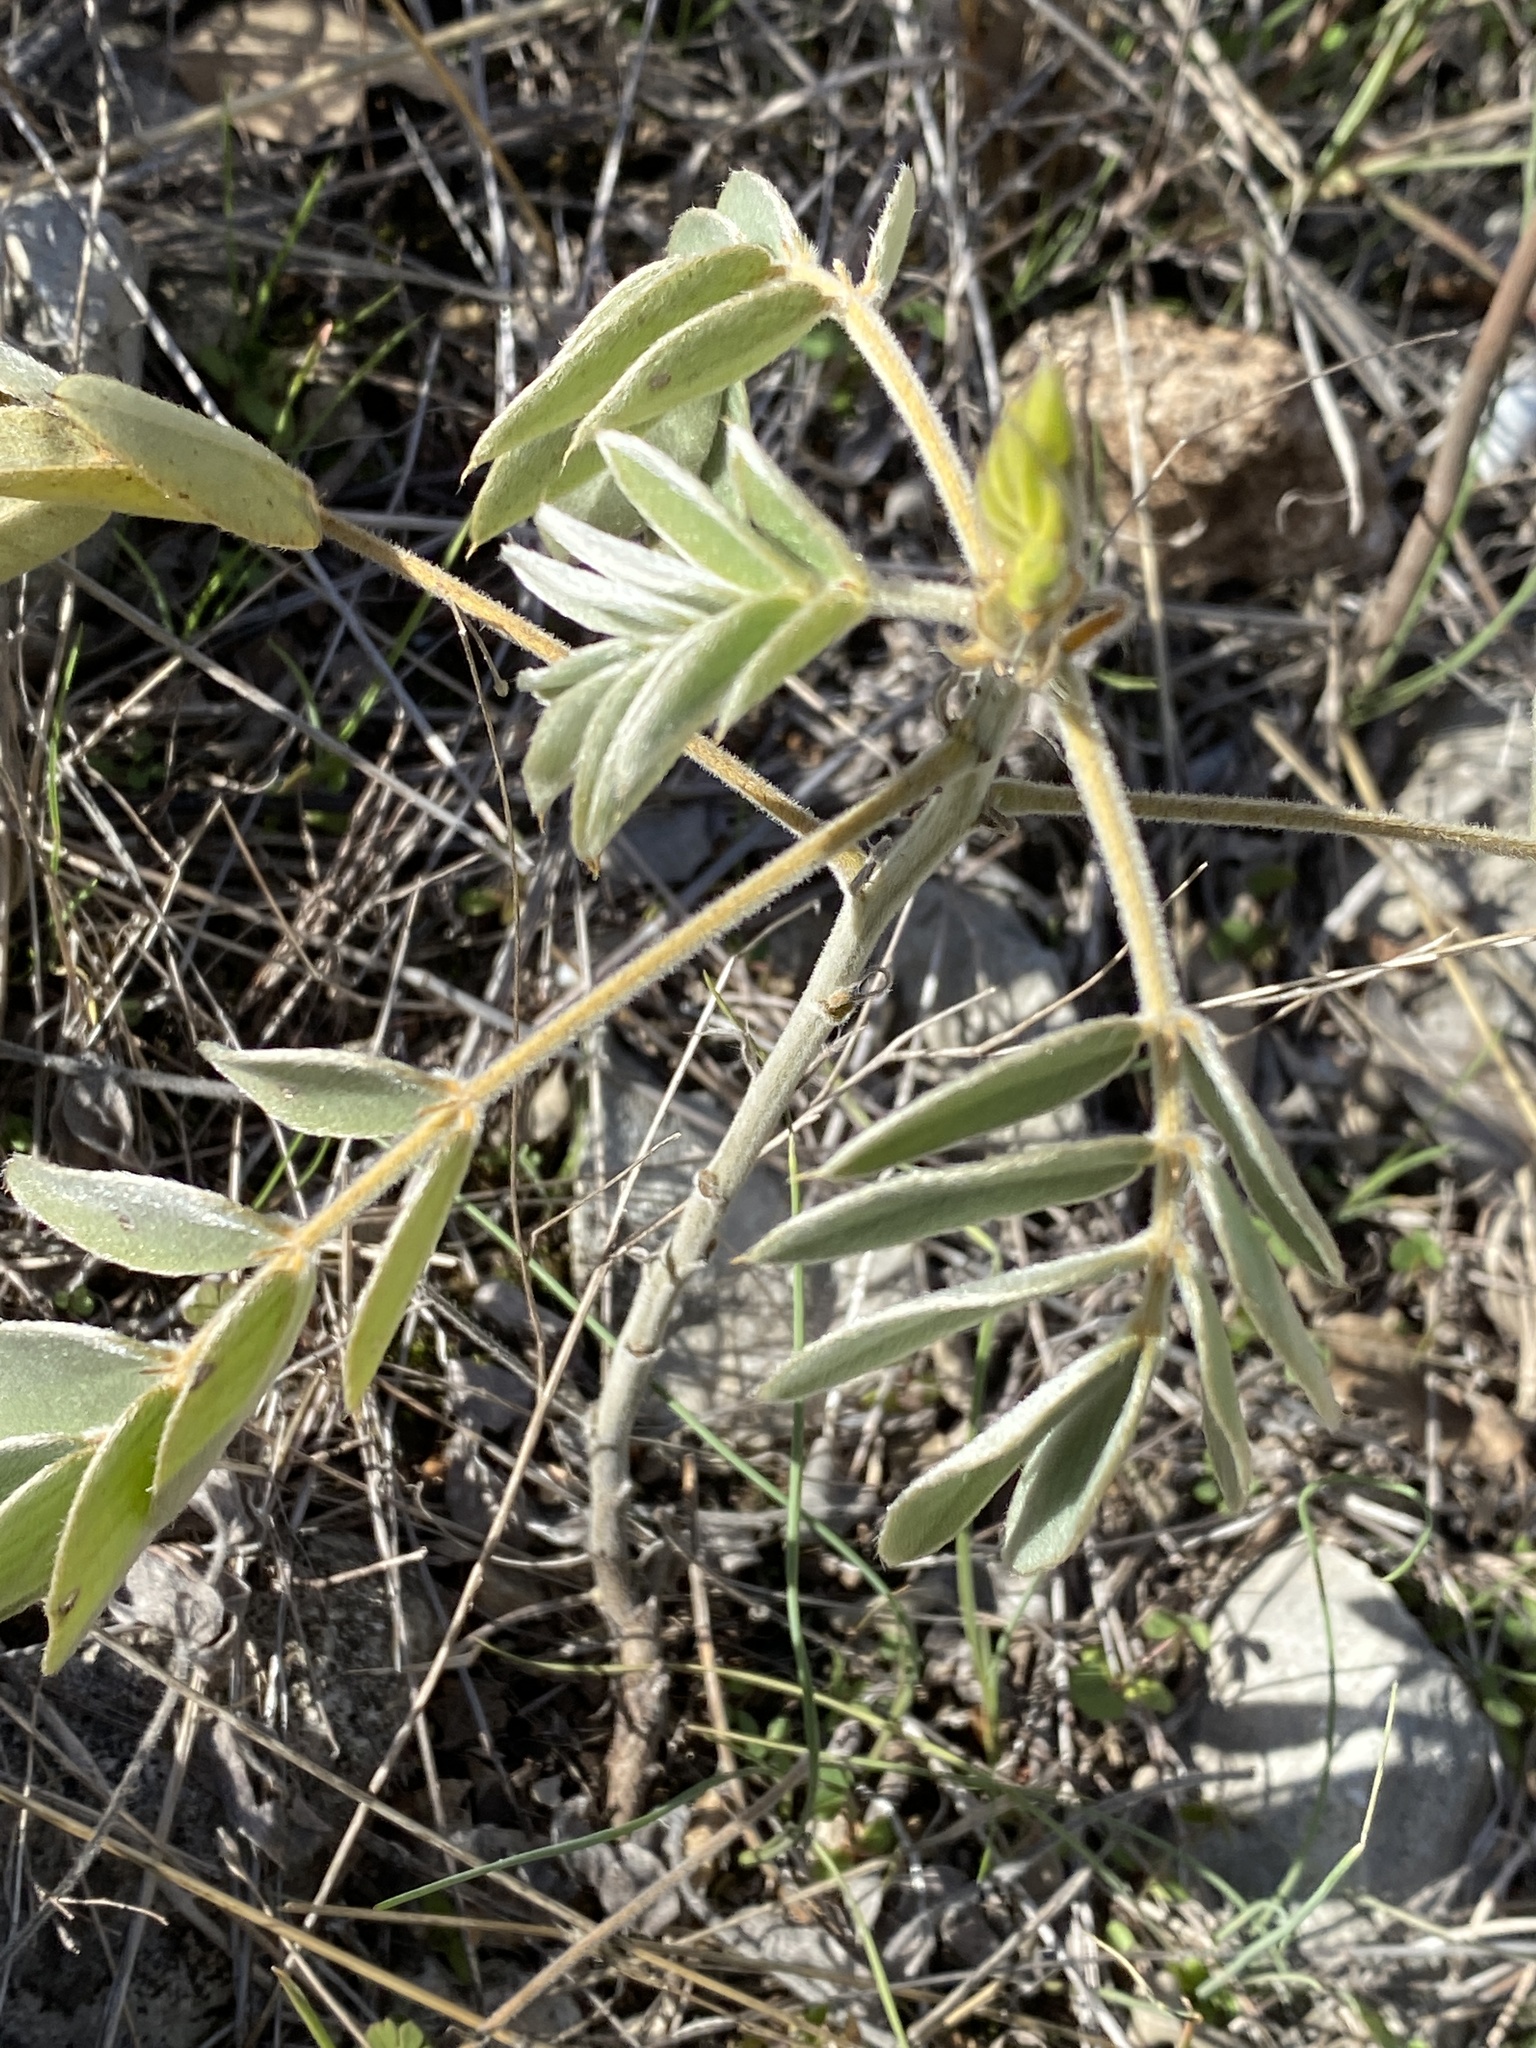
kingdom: Plantae
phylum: Tracheophyta
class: Magnoliopsida
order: Fabales
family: Fabaceae
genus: Senna
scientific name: Senna lindheimeriana
